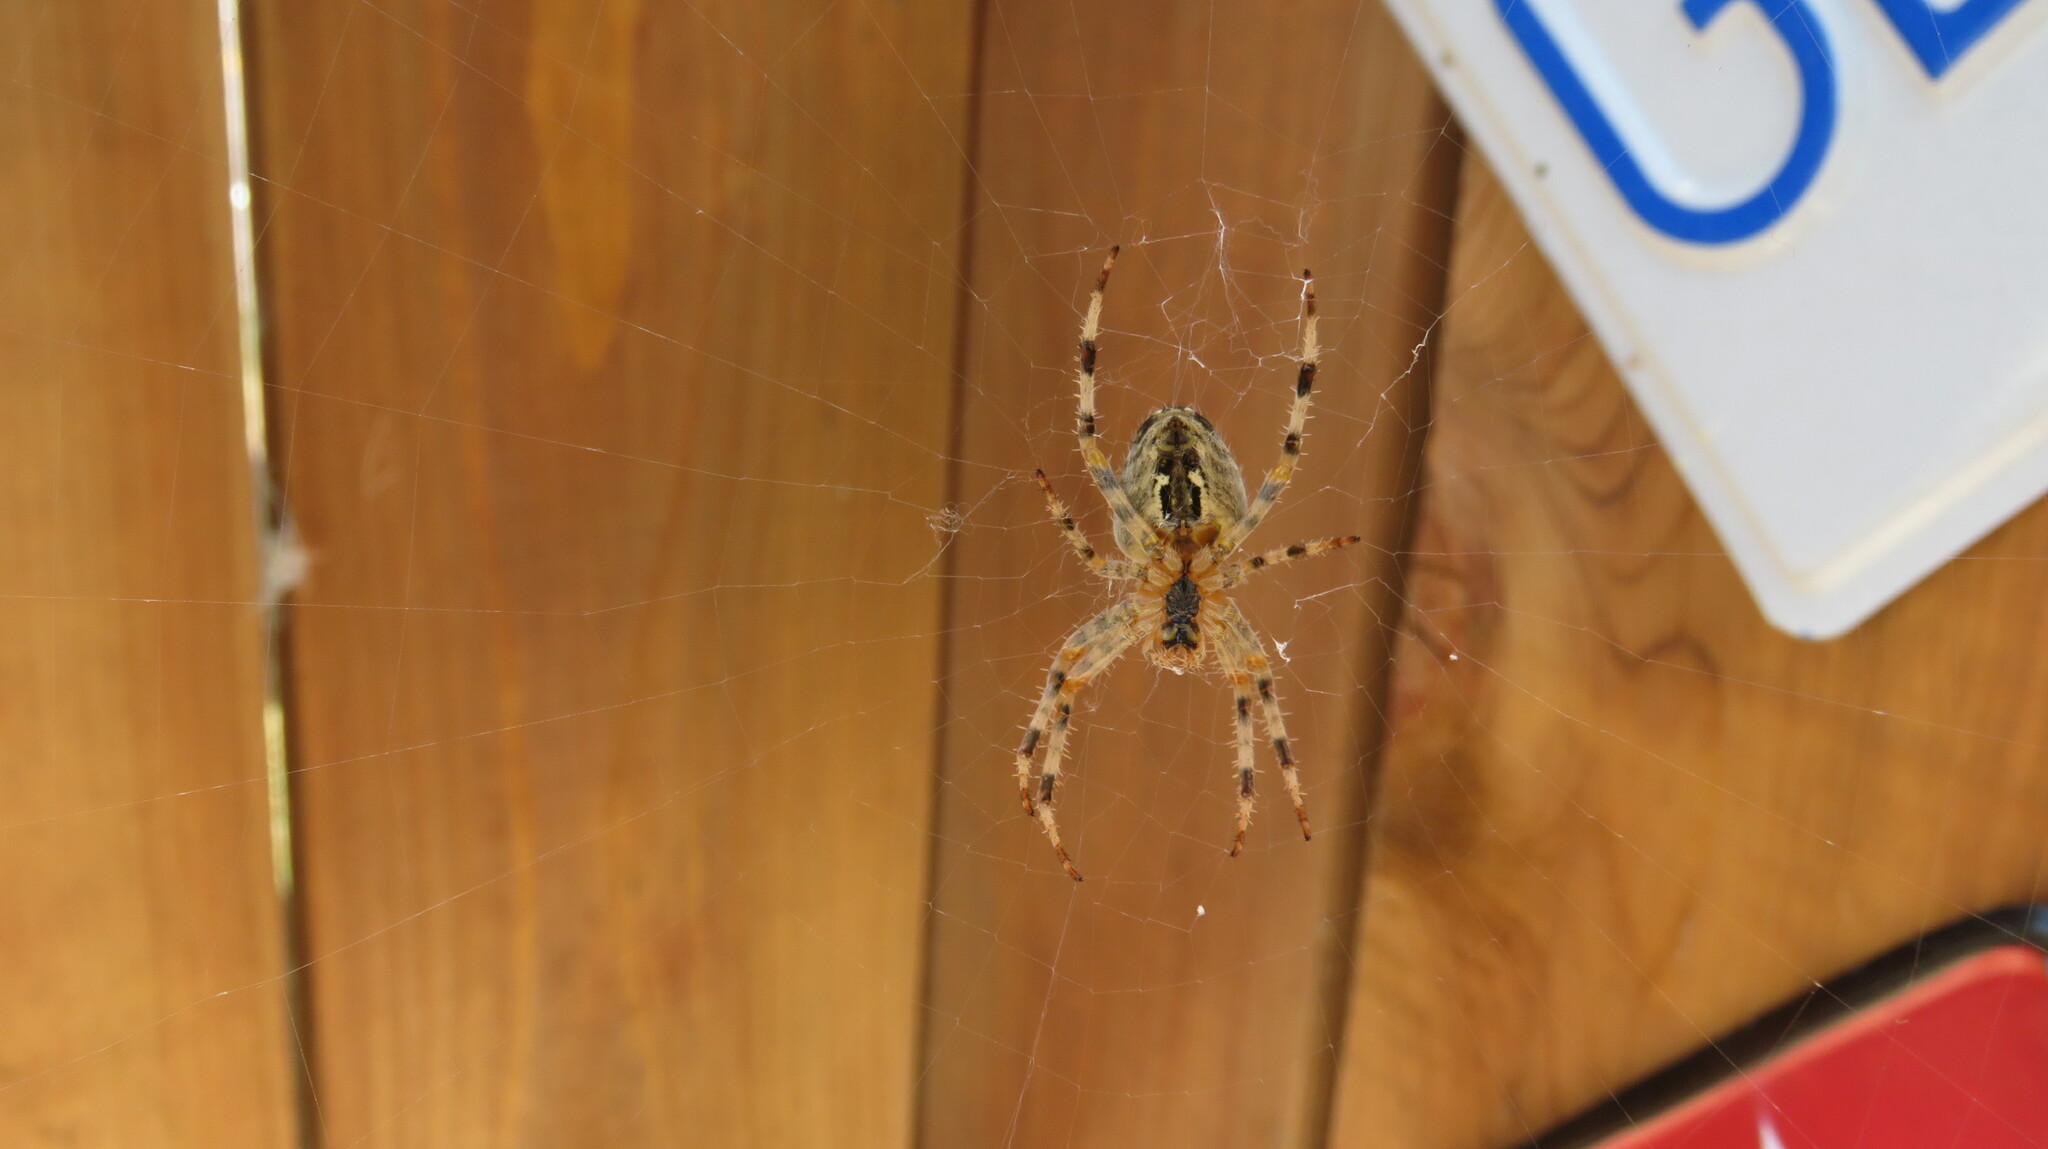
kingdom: Animalia
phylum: Arthropoda
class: Arachnida
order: Araneae
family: Araneidae
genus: Araneus
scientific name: Araneus diadematus
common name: Cross orbweaver
